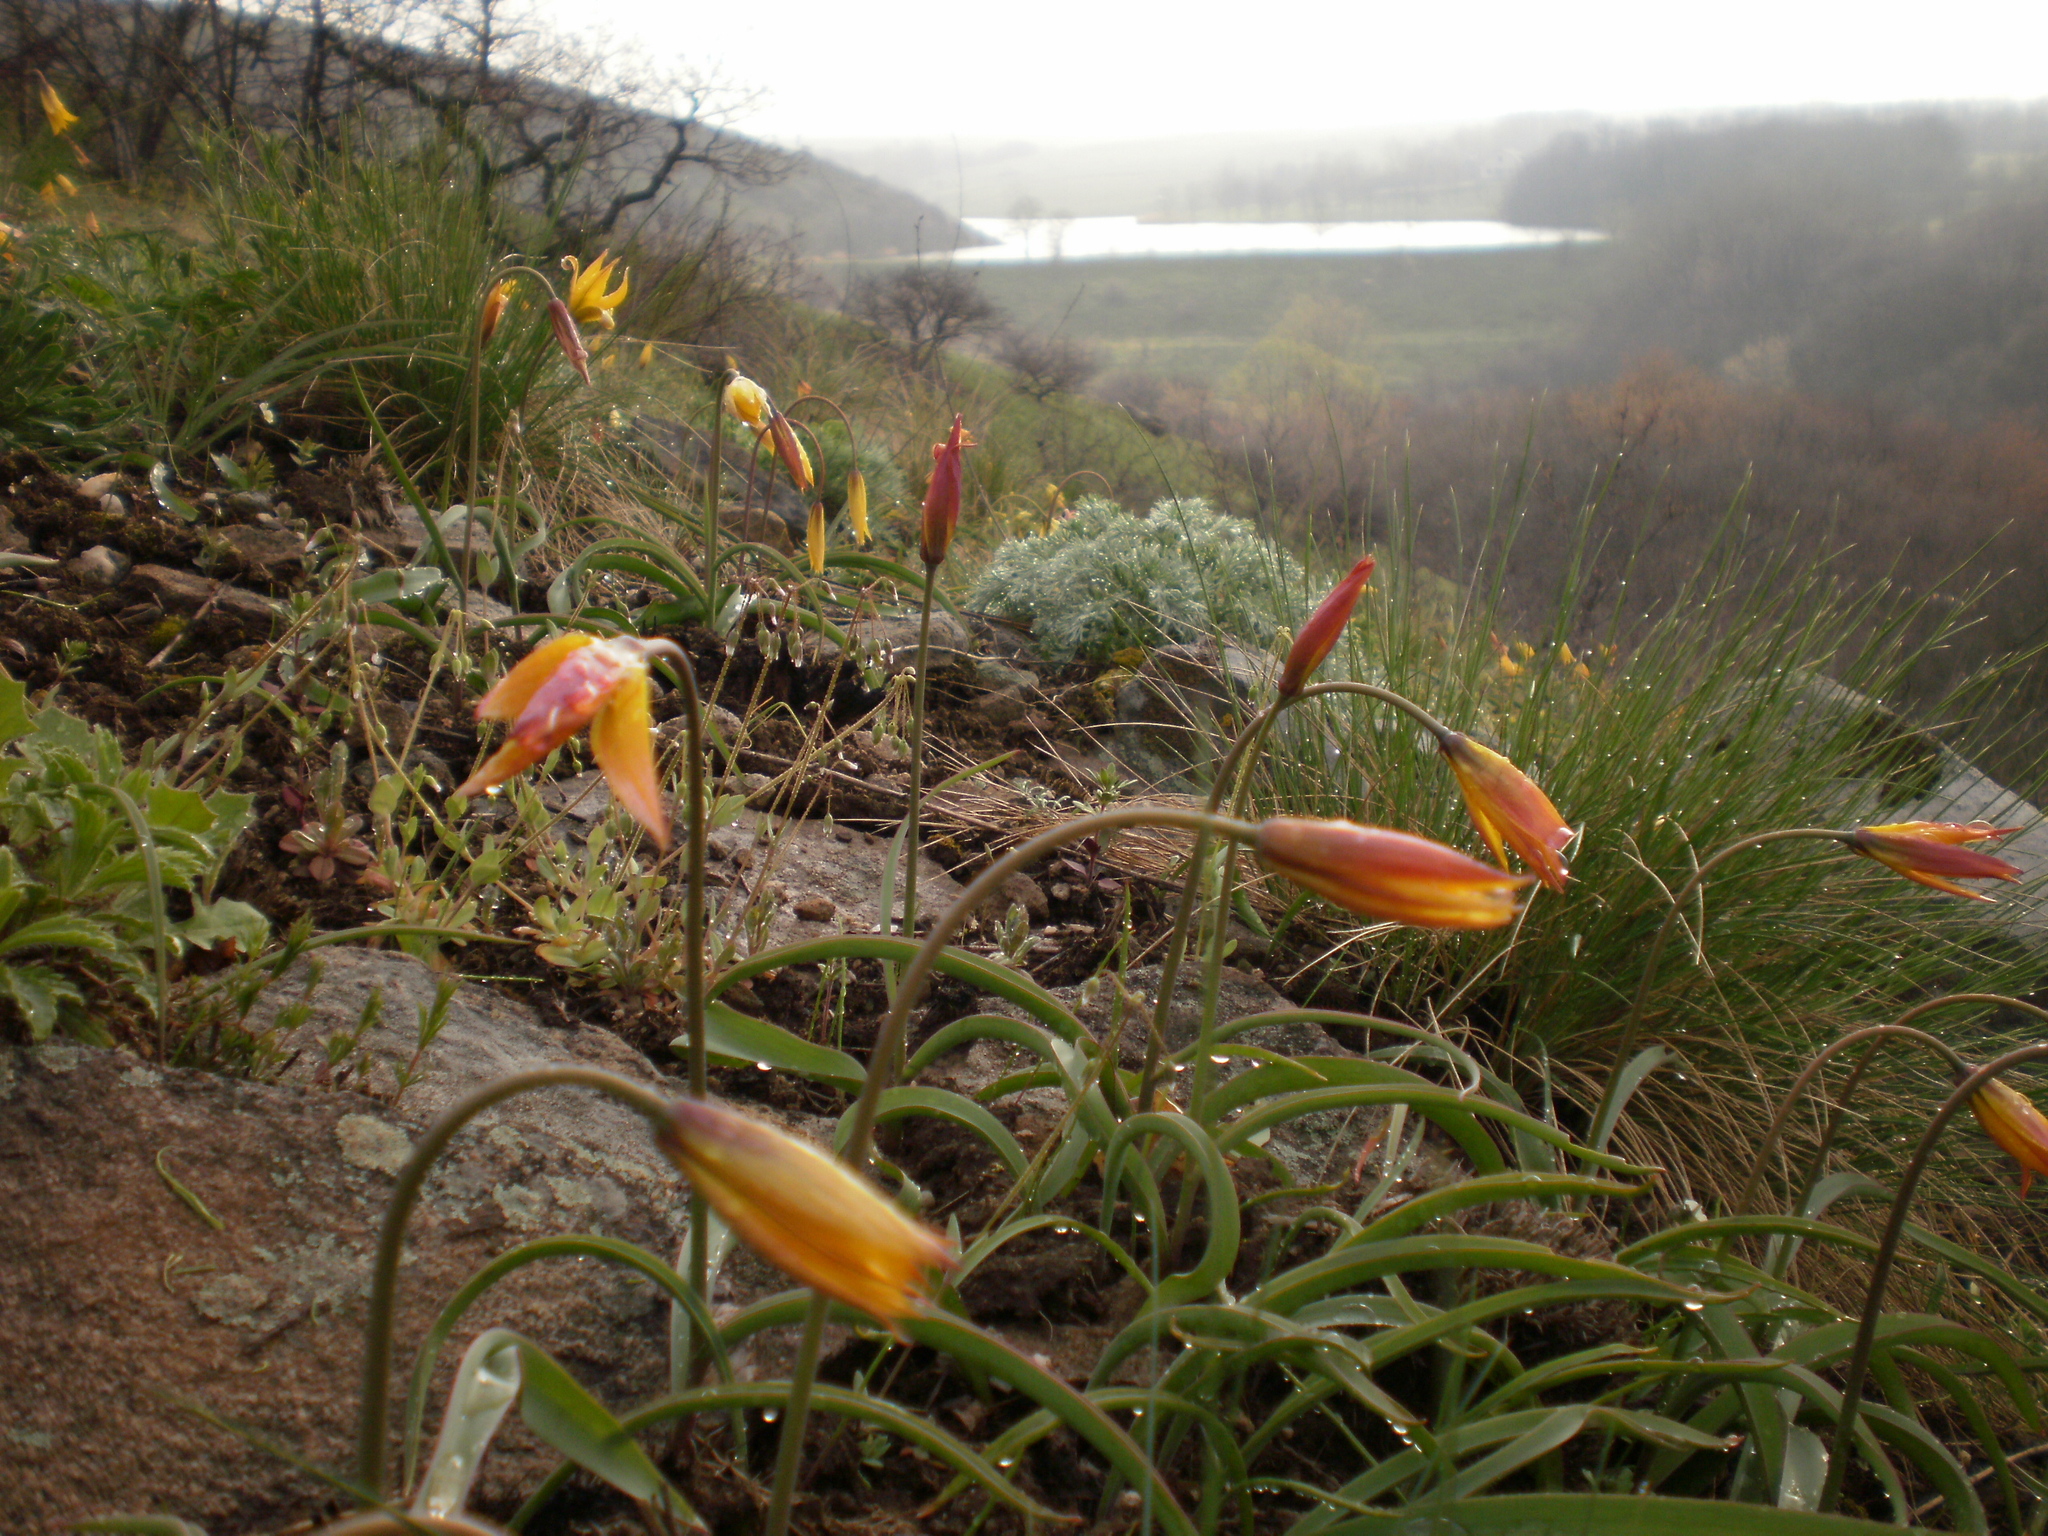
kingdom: Plantae
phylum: Tracheophyta
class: Liliopsida
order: Liliales
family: Liliaceae
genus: Tulipa
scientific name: Tulipa sylvestris
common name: Wild tulip
